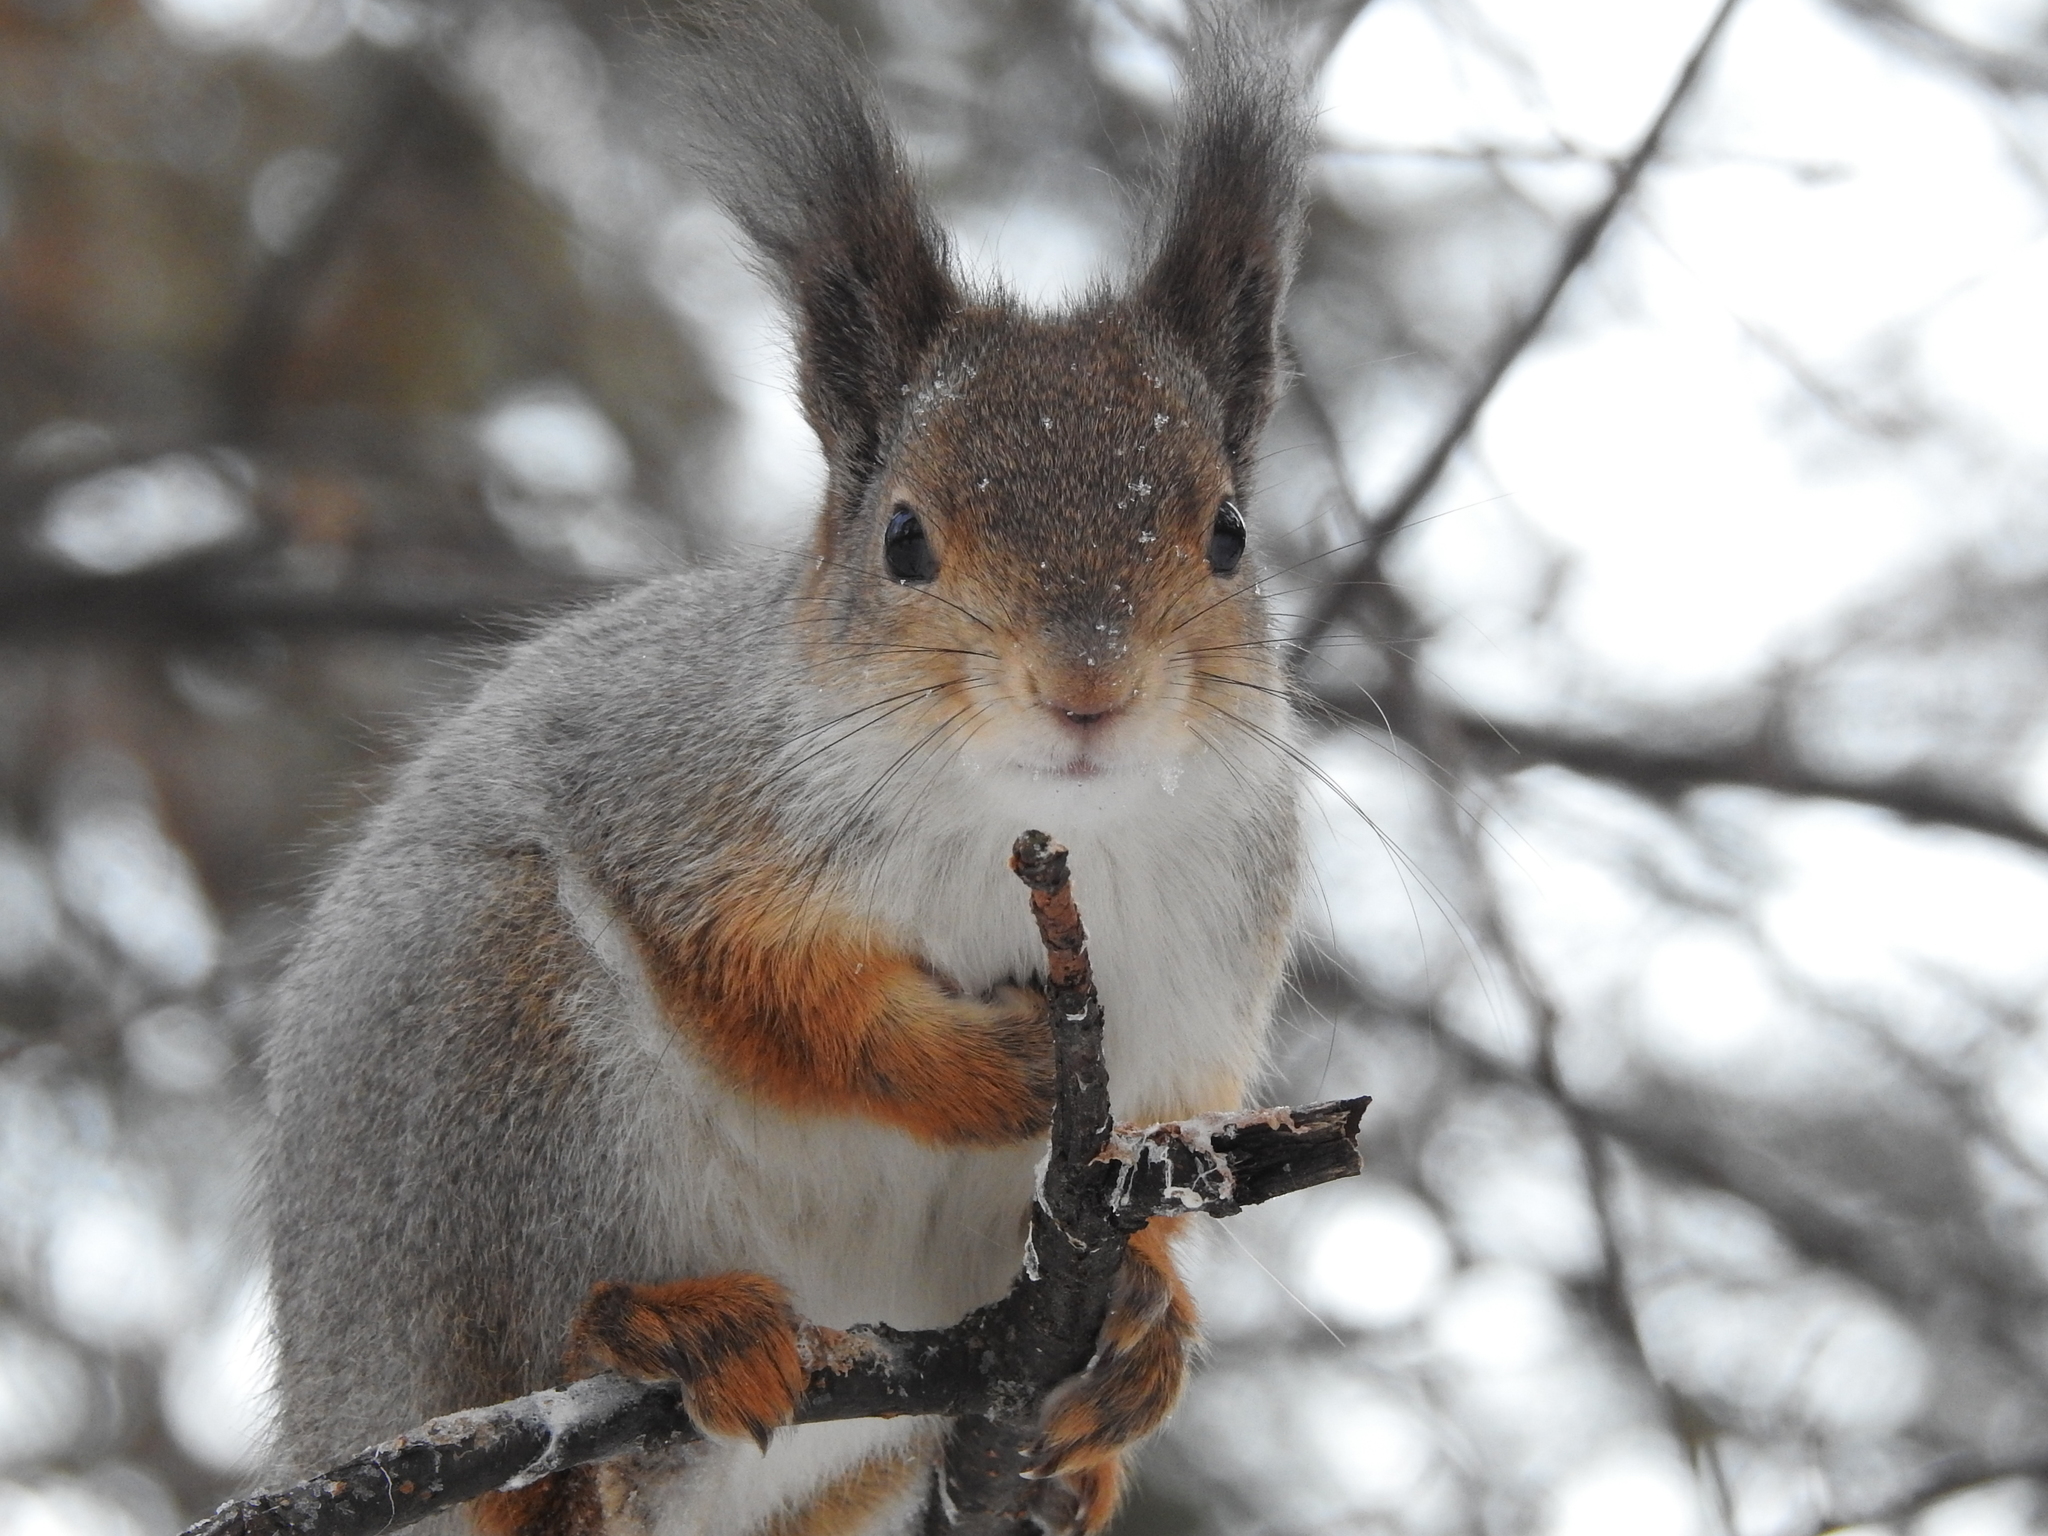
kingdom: Animalia
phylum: Chordata
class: Mammalia
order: Rodentia
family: Sciuridae
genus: Sciurus
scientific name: Sciurus vulgaris
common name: Eurasian red squirrel
